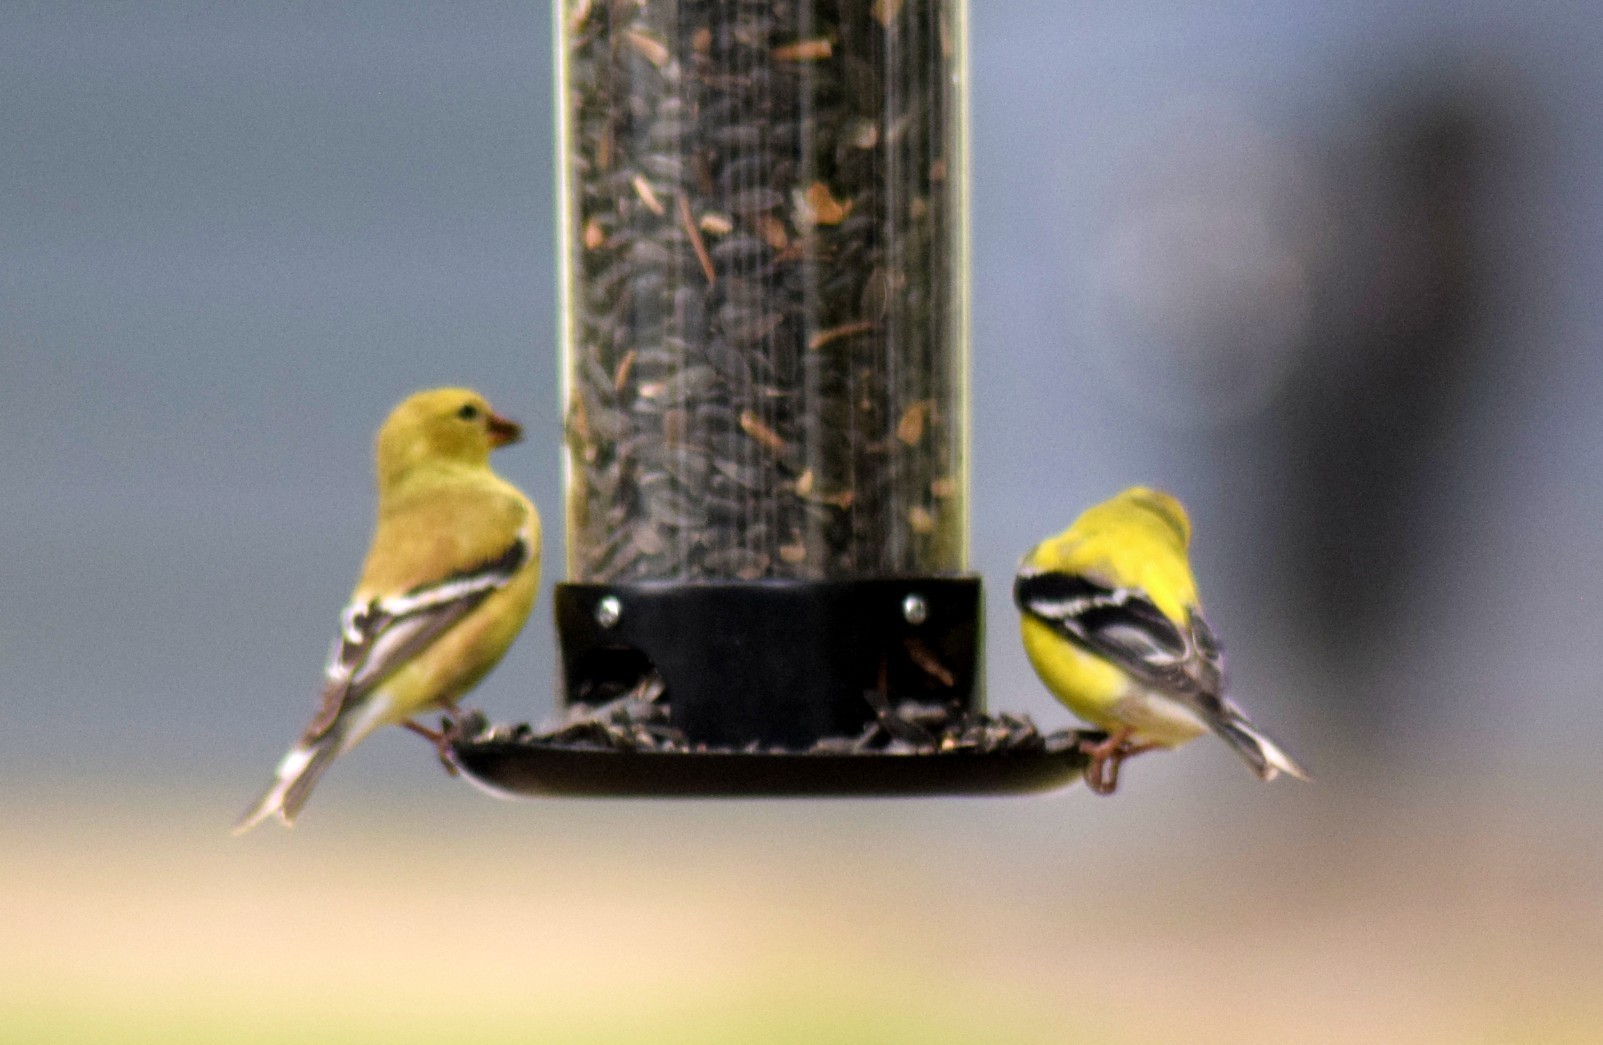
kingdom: Animalia
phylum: Chordata
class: Aves
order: Passeriformes
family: Fringillidae
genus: Spinus
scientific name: Spinus tristis
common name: American goldfinch
